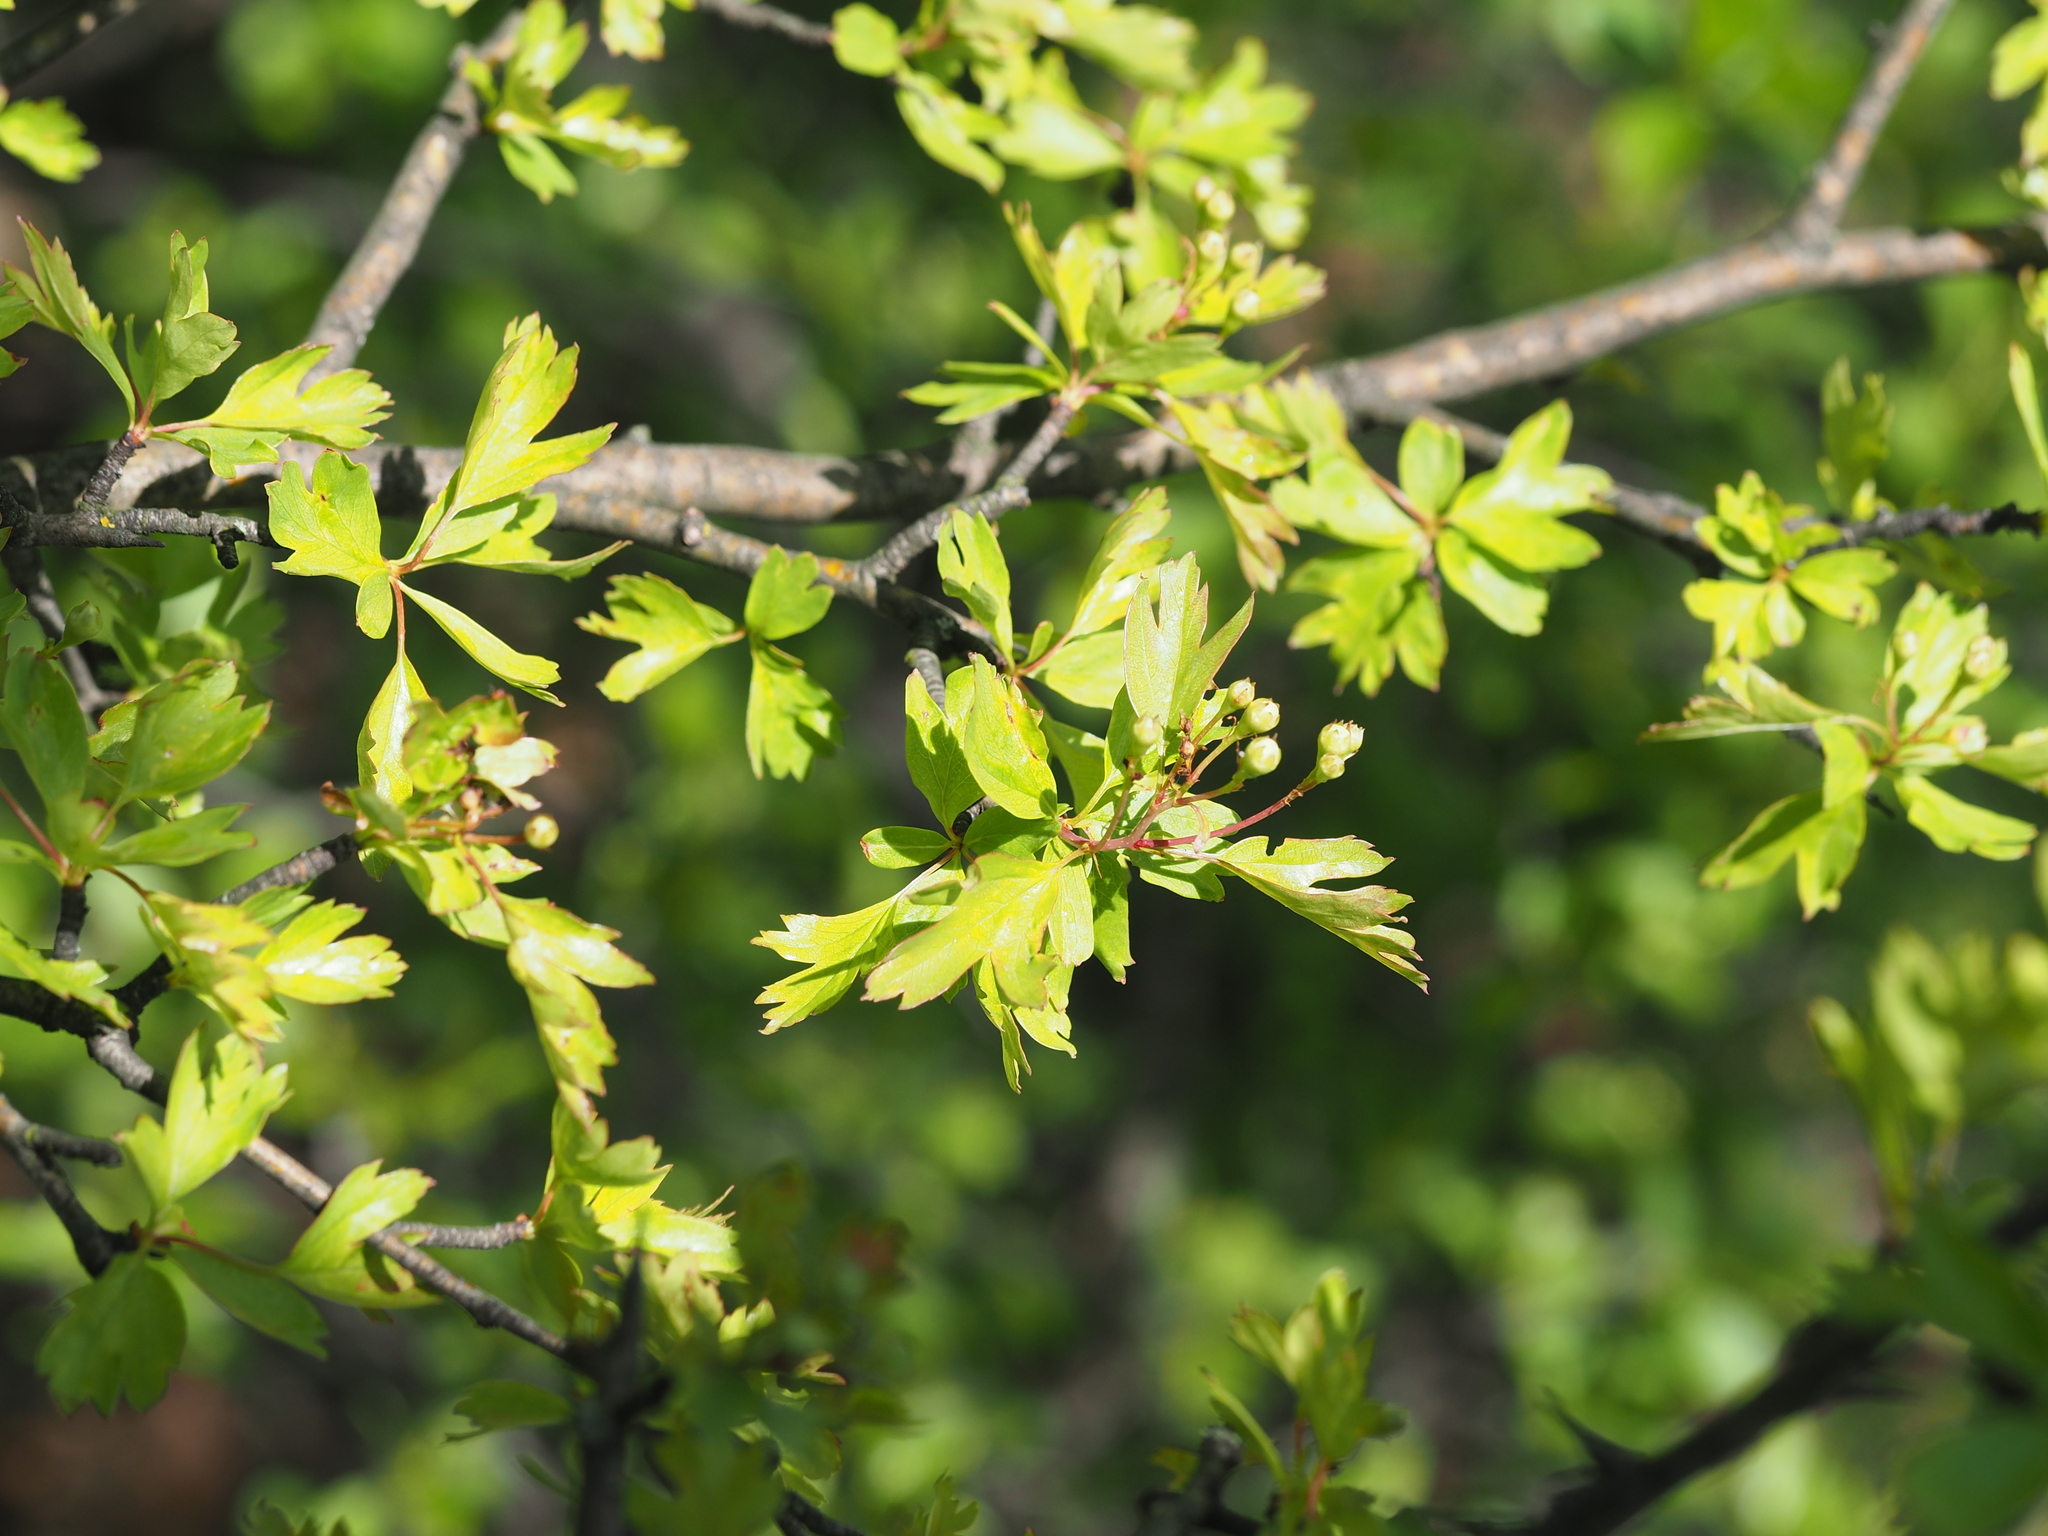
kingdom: Plantae
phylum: Tracheophyta
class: Magnoliopsida
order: Rosales
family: Rosaceae
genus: Crataegus
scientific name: Crataegus monogyna
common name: Hawthorn
